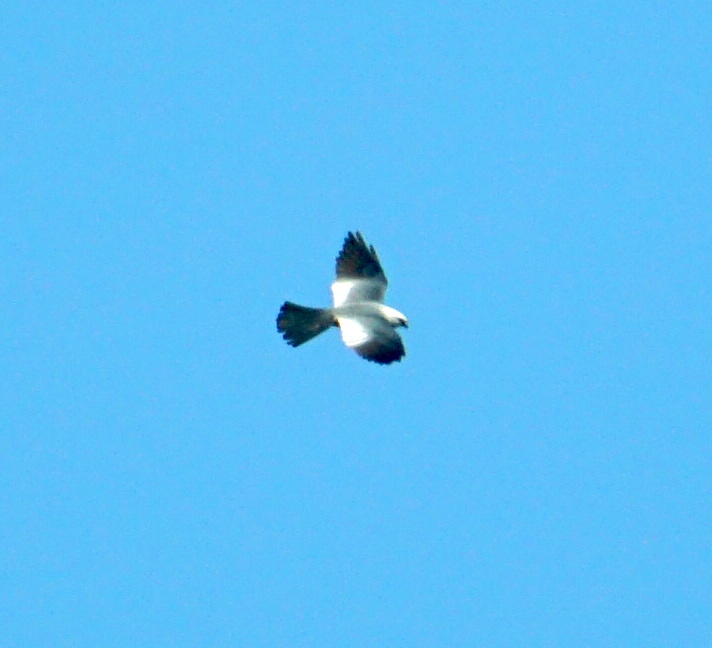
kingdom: Animalia
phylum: Chordata
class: Aves
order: Accipitriformes
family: Accipitridae
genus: Ictinia
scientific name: Ictinia mississippiensis
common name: Mississippi kite
